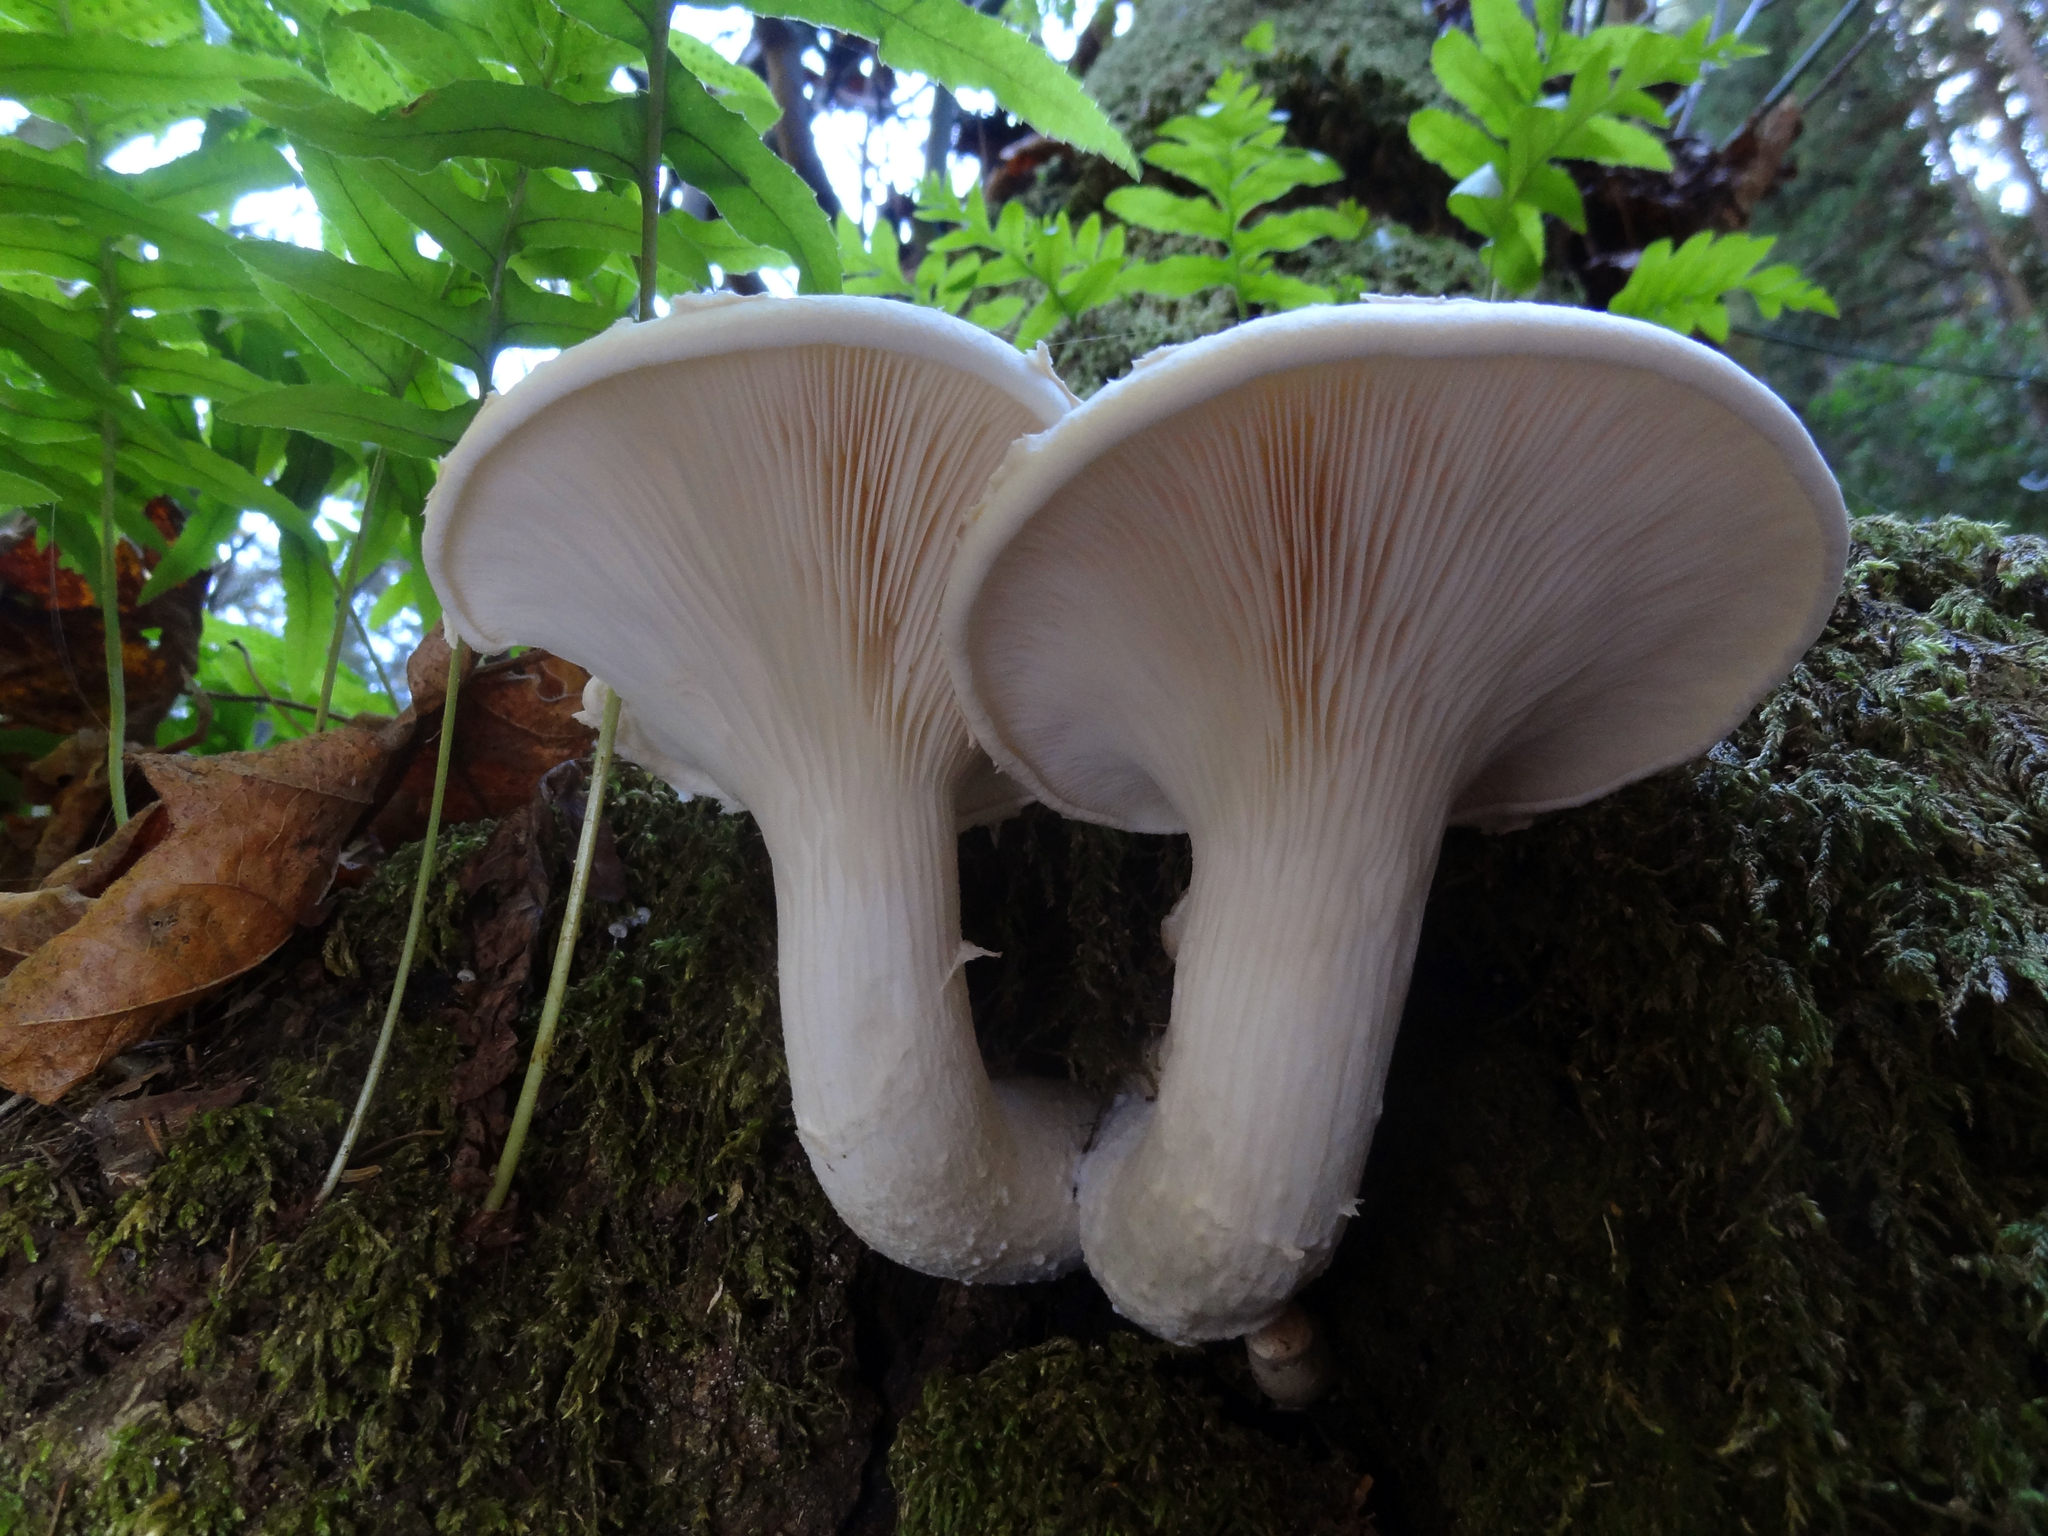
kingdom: Fungi
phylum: Basidiomycota
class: Agaricomycetes
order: Agaricales
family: Pleurotaceae
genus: Pleurotus
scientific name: Pleurotus dryinus
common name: Veiled oyster
